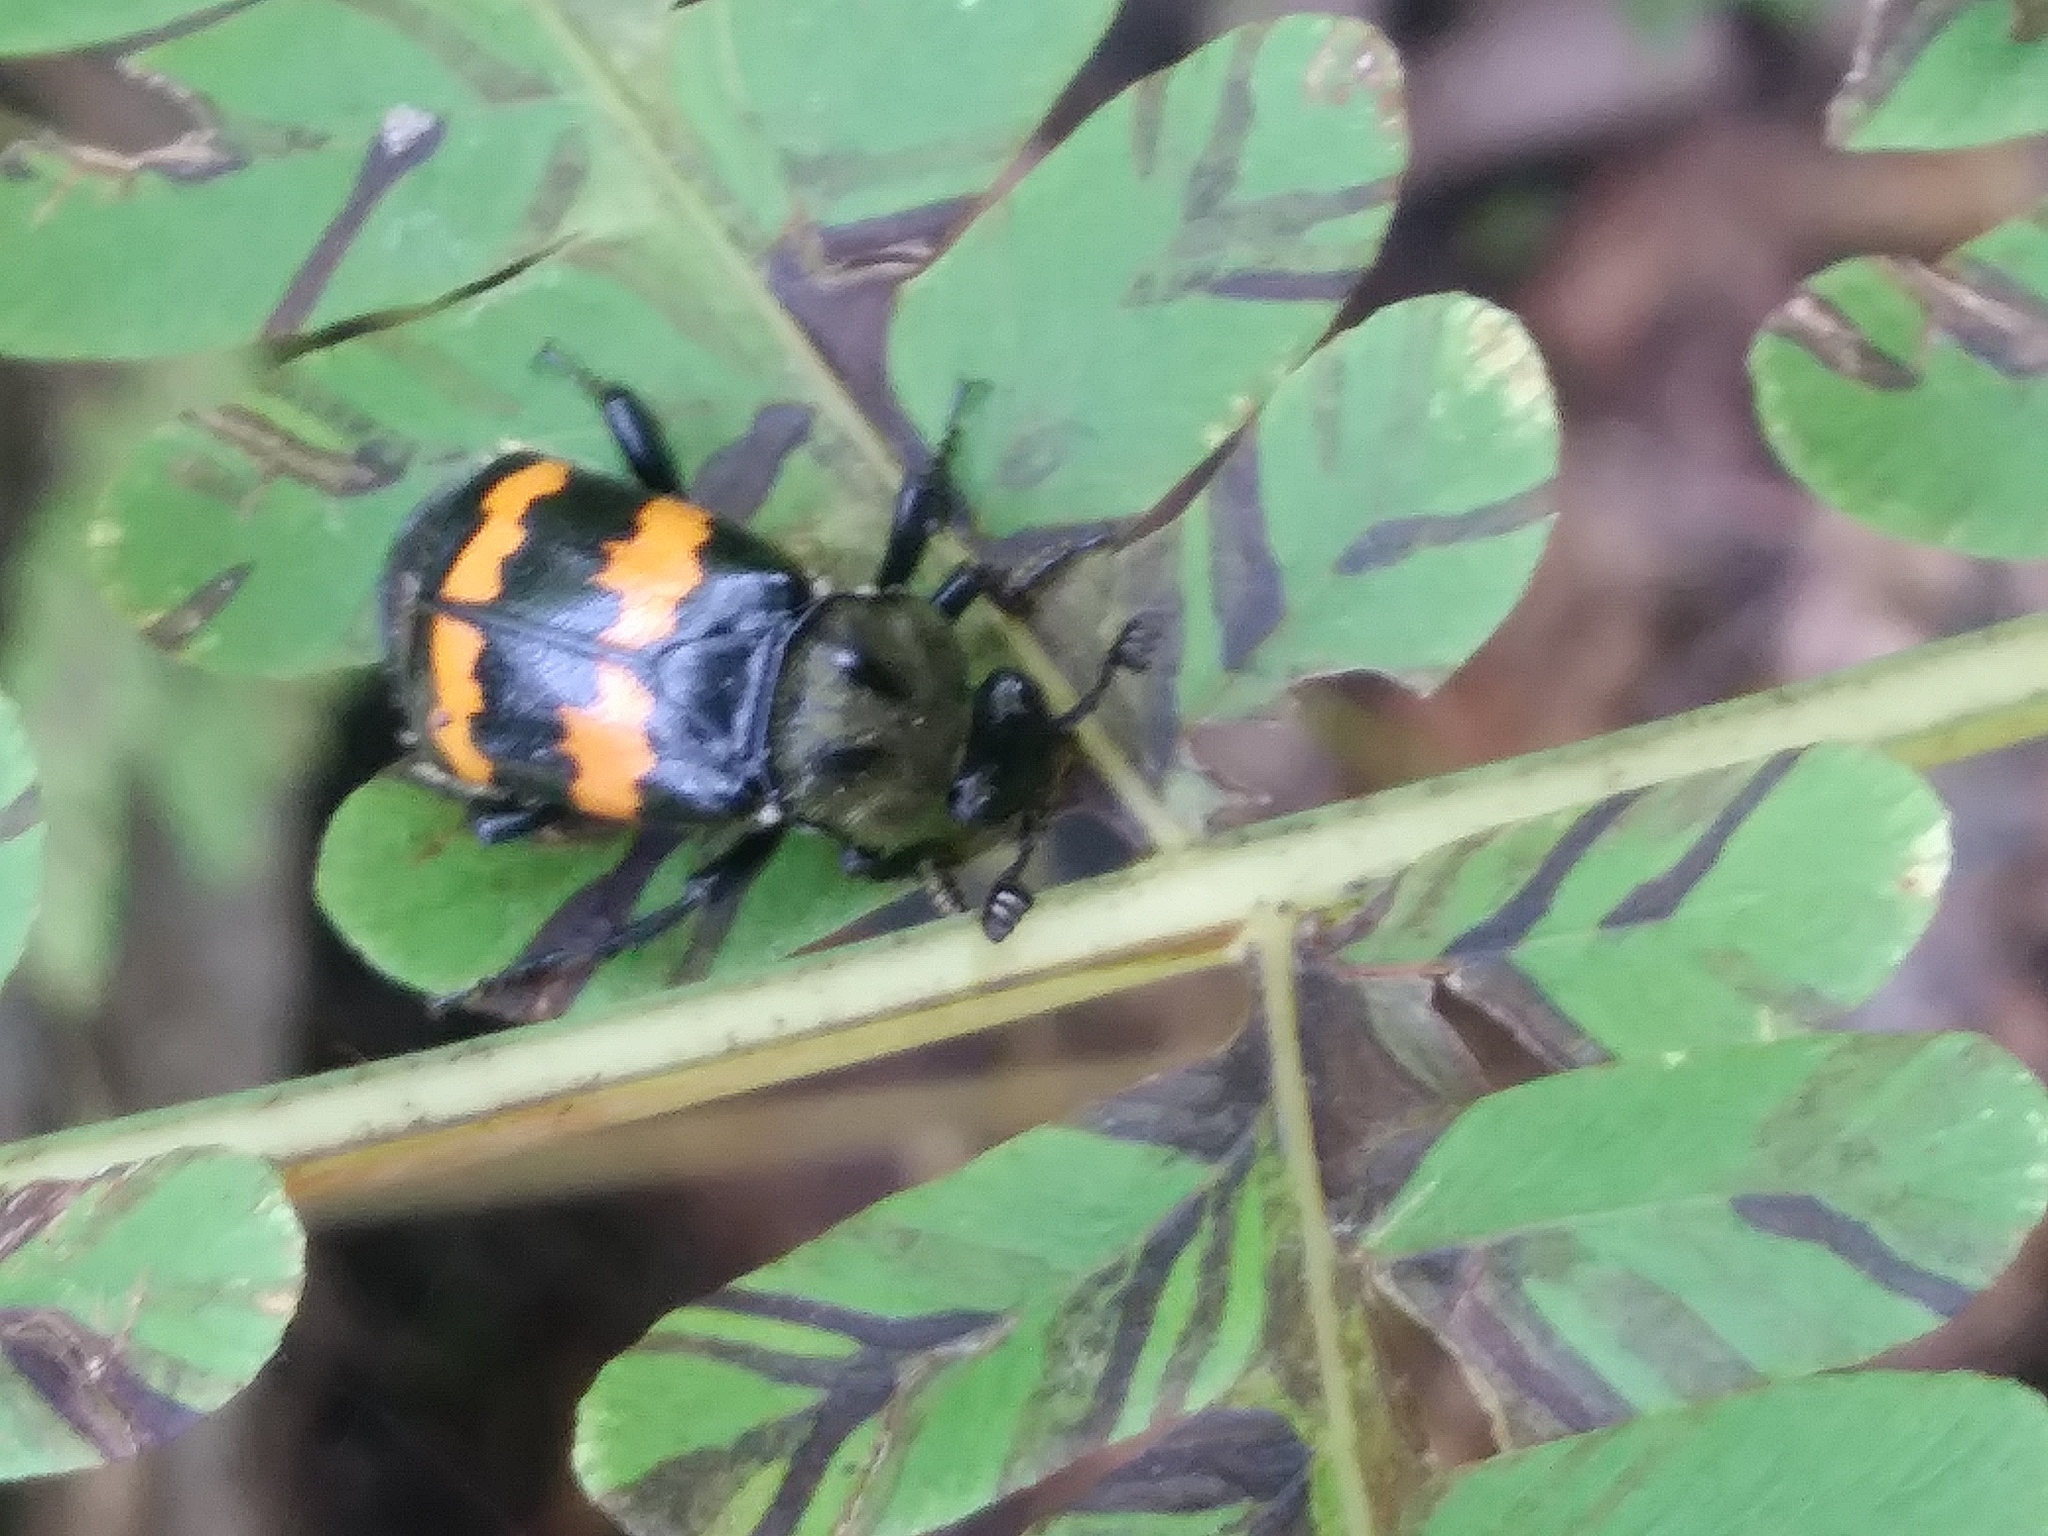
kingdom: Animalia
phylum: Arthropoda
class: Insecta
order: Coleoptera
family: Staphylinidae
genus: Nicrophorus
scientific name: Nicrophorus tomentosus
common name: Tomentose burying beetle
